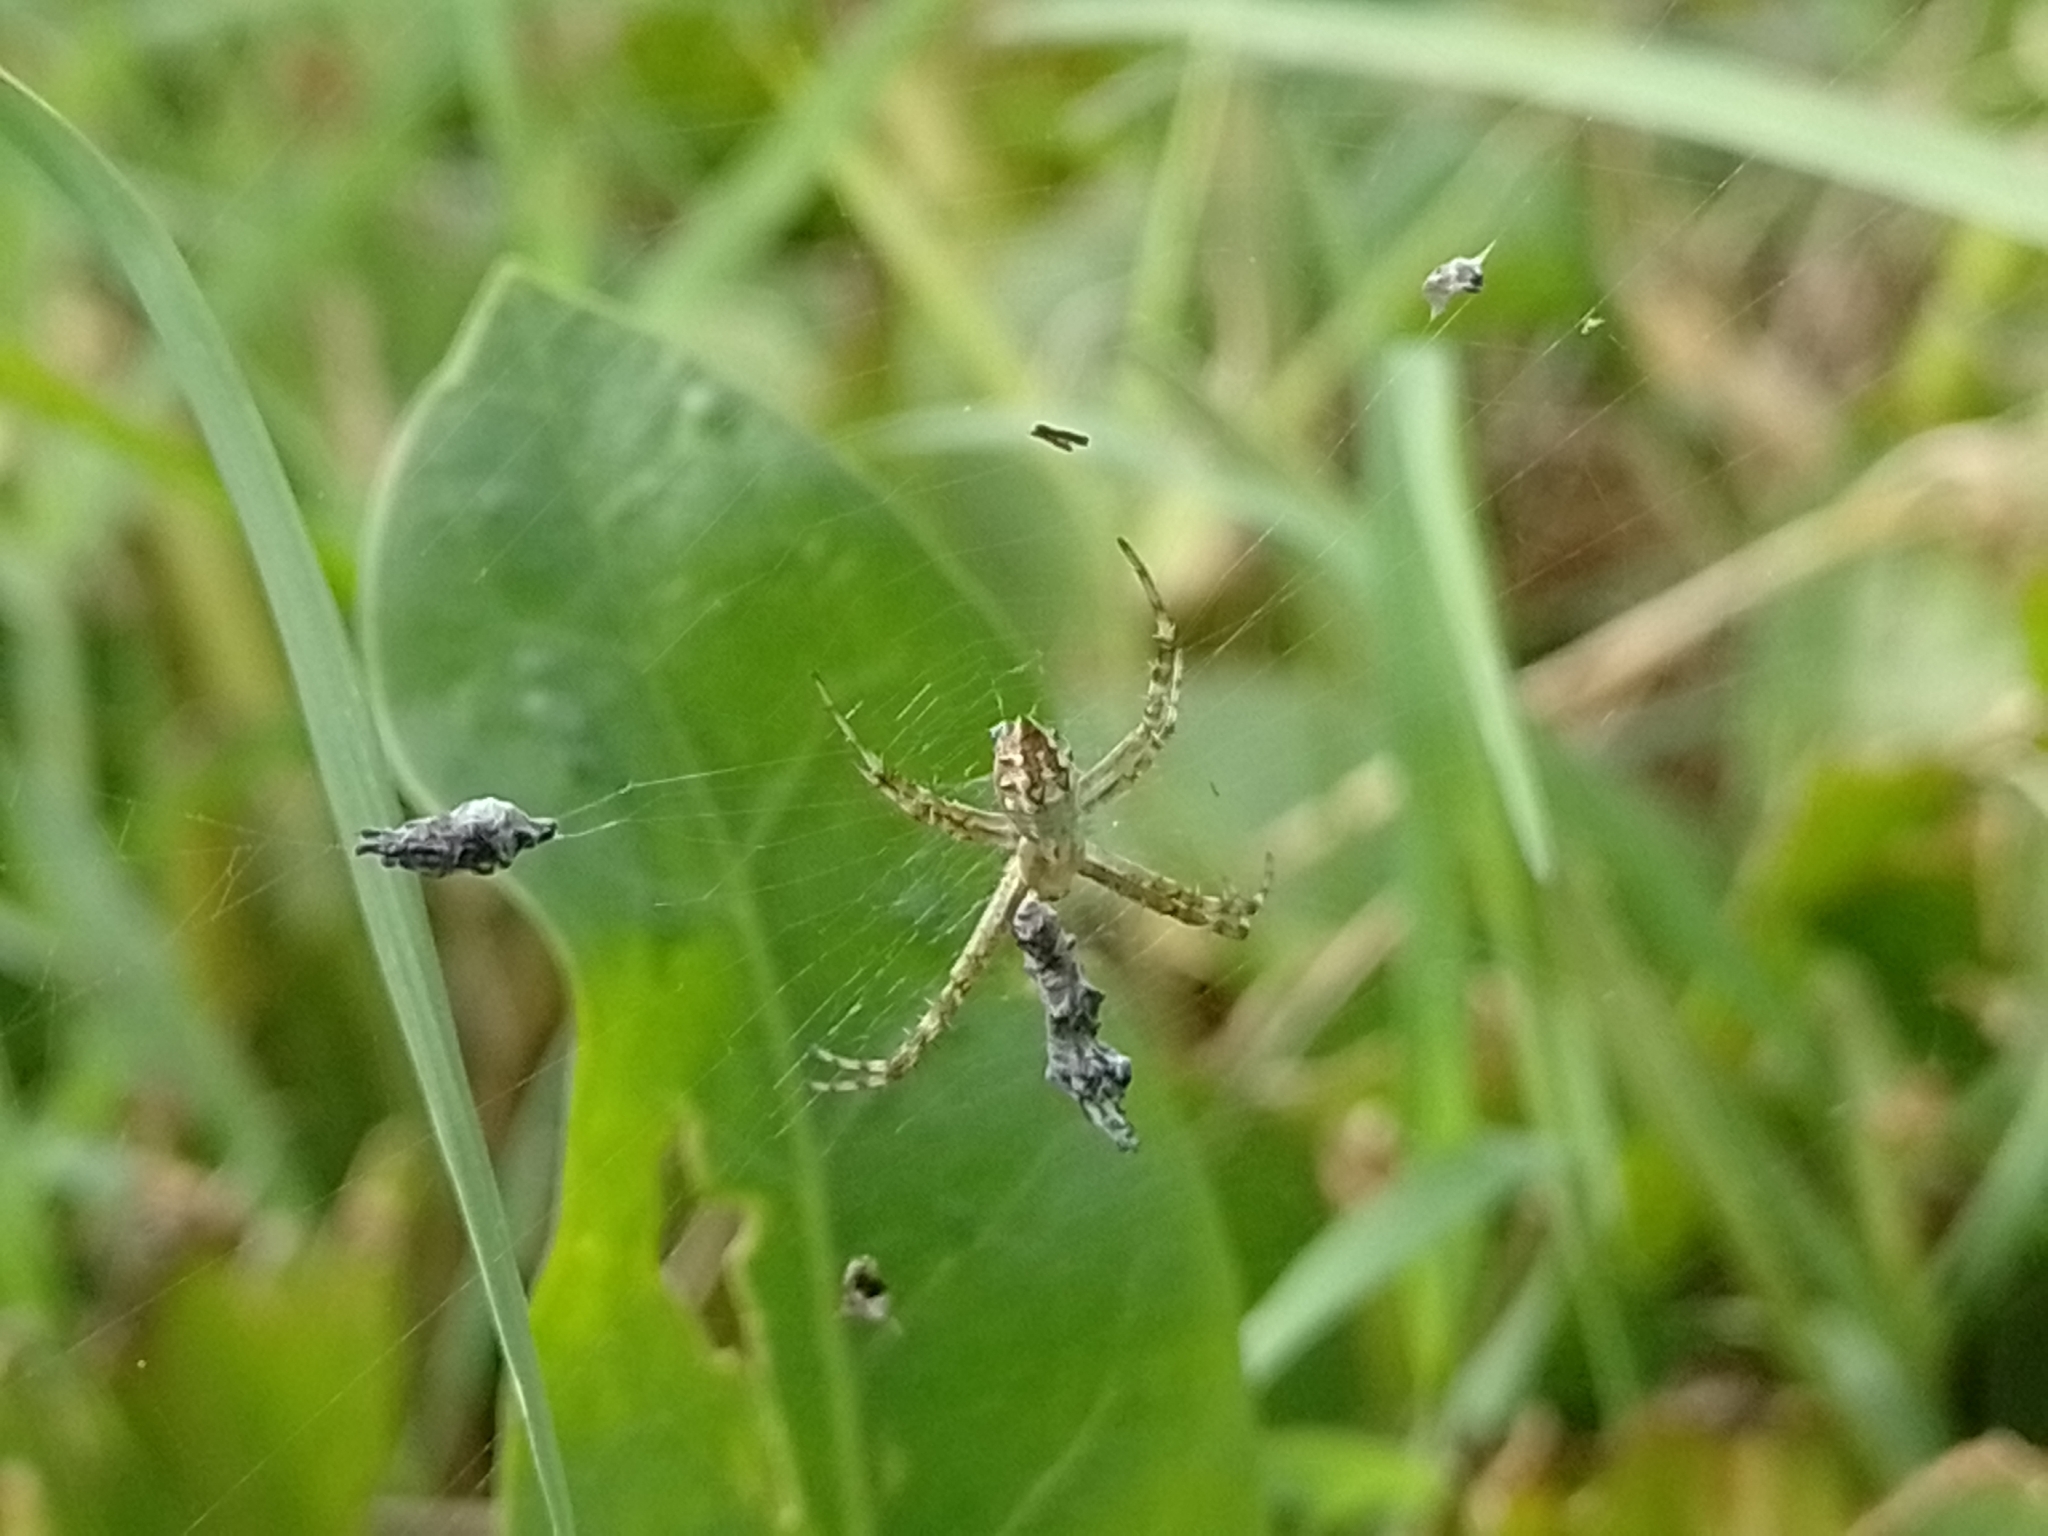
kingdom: Animalia
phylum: Arthropoda
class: Arachnida
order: Araneae
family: Araneidae
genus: Argiope
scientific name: Argiope argentata
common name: Orb weavers
